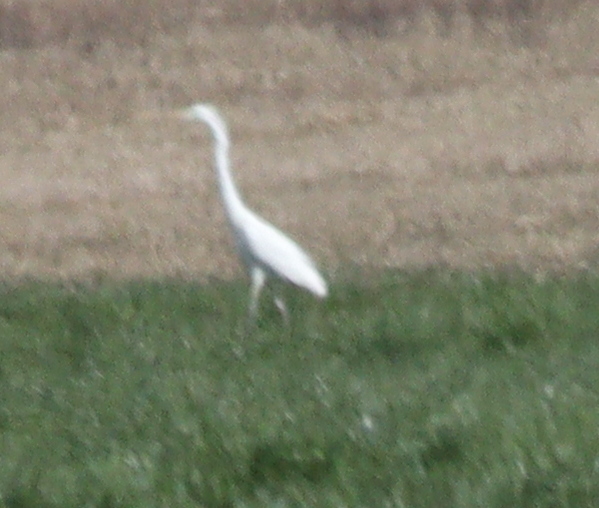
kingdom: Animalia
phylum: Chordata
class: Aves
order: Pelecaniformes
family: Ardeidae
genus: Ardea
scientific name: Ardea alba
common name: Great egret
